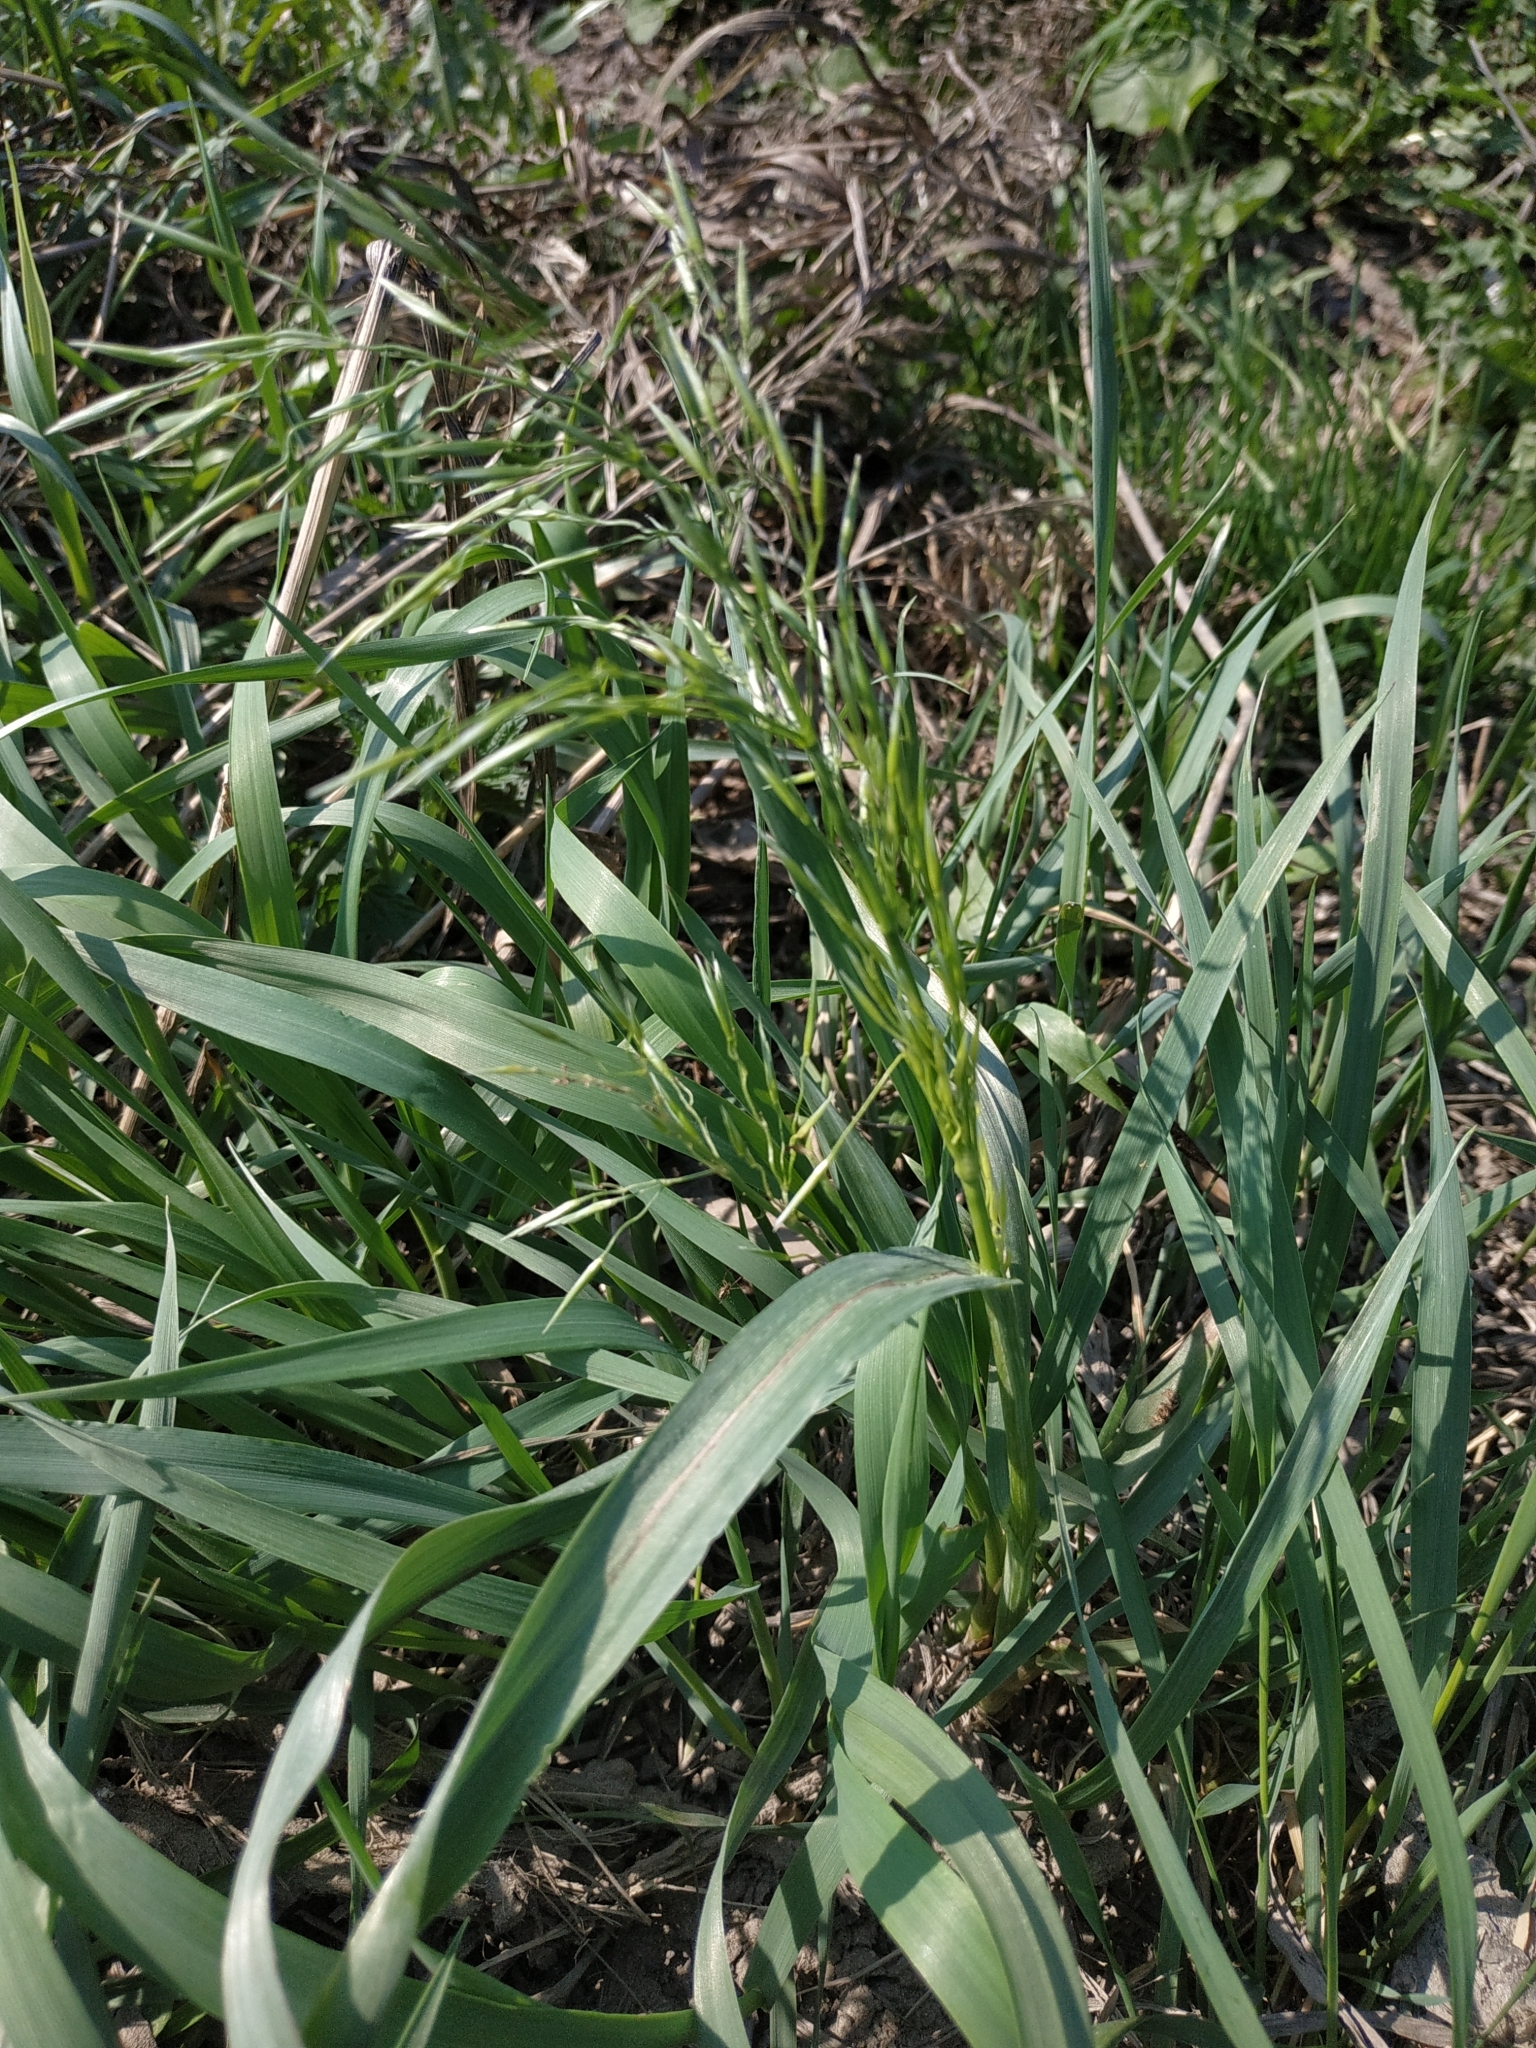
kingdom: Plantae
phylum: Tracheophyta
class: Liliopsida
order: Poales
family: Poaceae
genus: Bromus
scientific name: Bromus inermis
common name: Smooth brome
